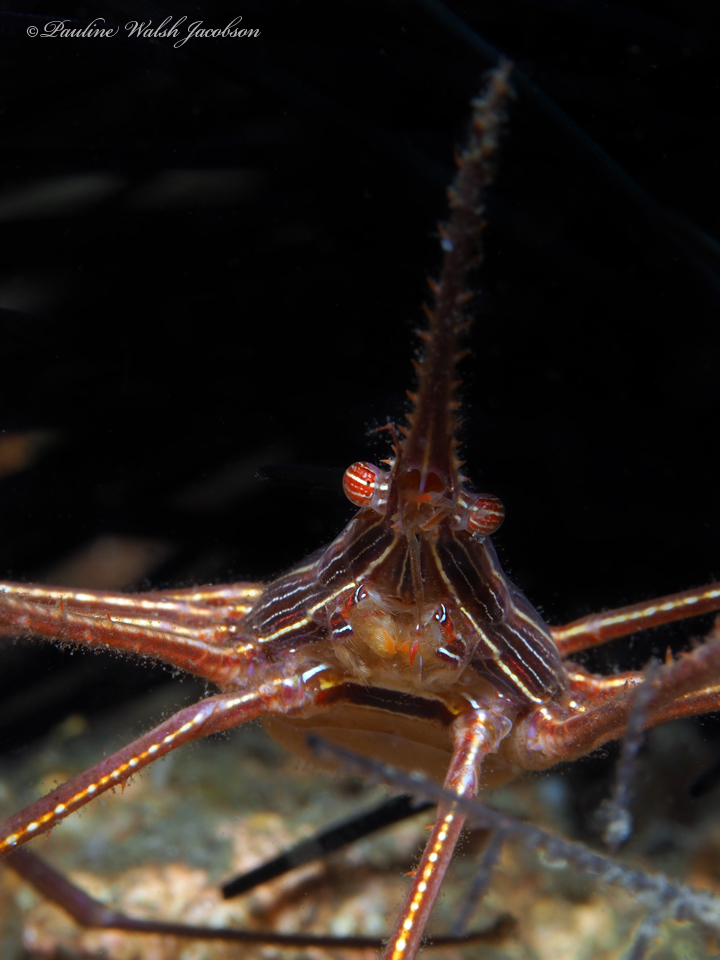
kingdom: Animalia
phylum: Arthropoda
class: Malacostraca
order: Decapoda
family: Inachoididae
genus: Stenorhynchus
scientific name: Stenorhynchus seticornis
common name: Arrow crab
